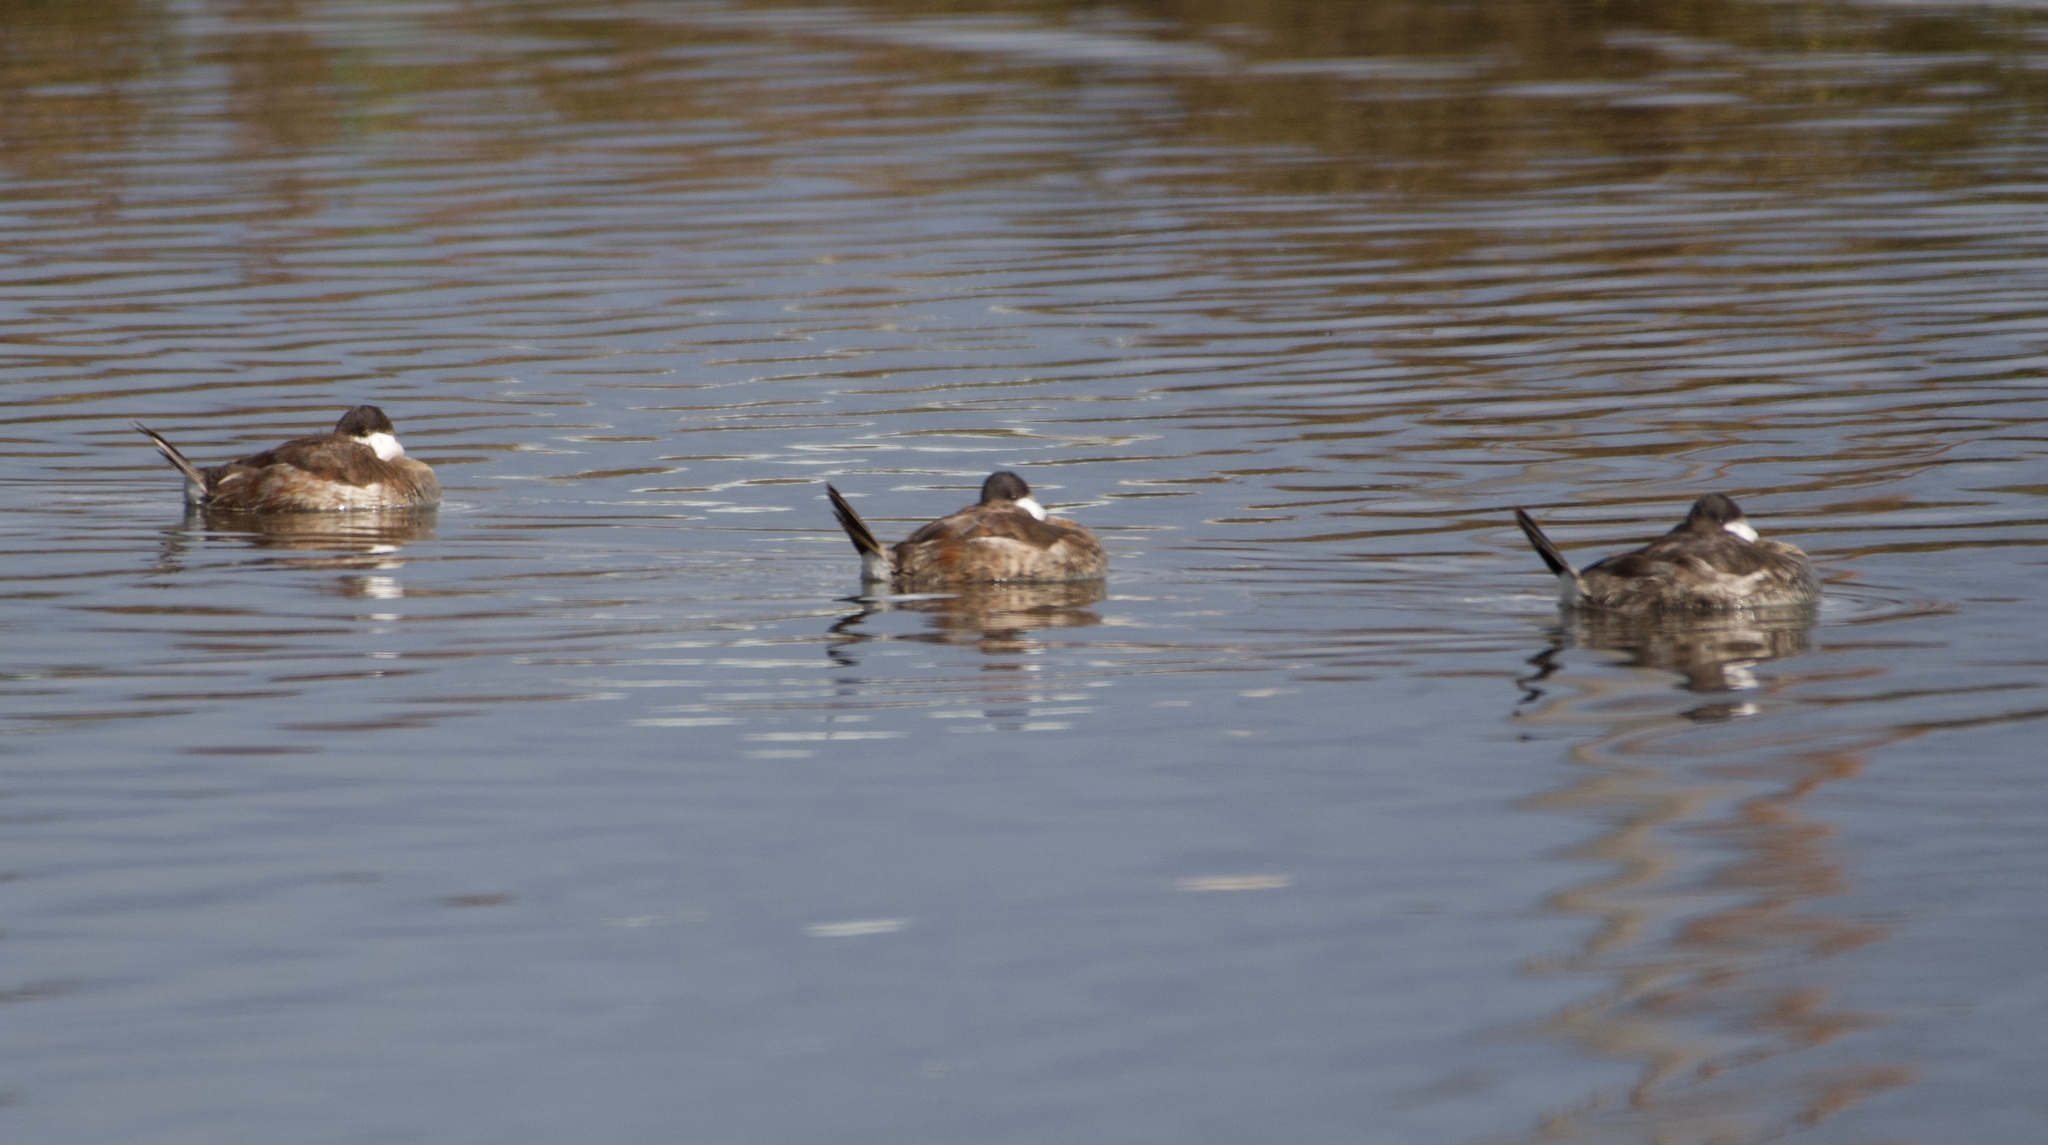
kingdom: Animalia
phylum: Chordata
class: Aves
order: Anseriformes
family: Anatidae
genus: Oxyura
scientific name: Oxyura jamaicensis
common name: Ruddy duck
